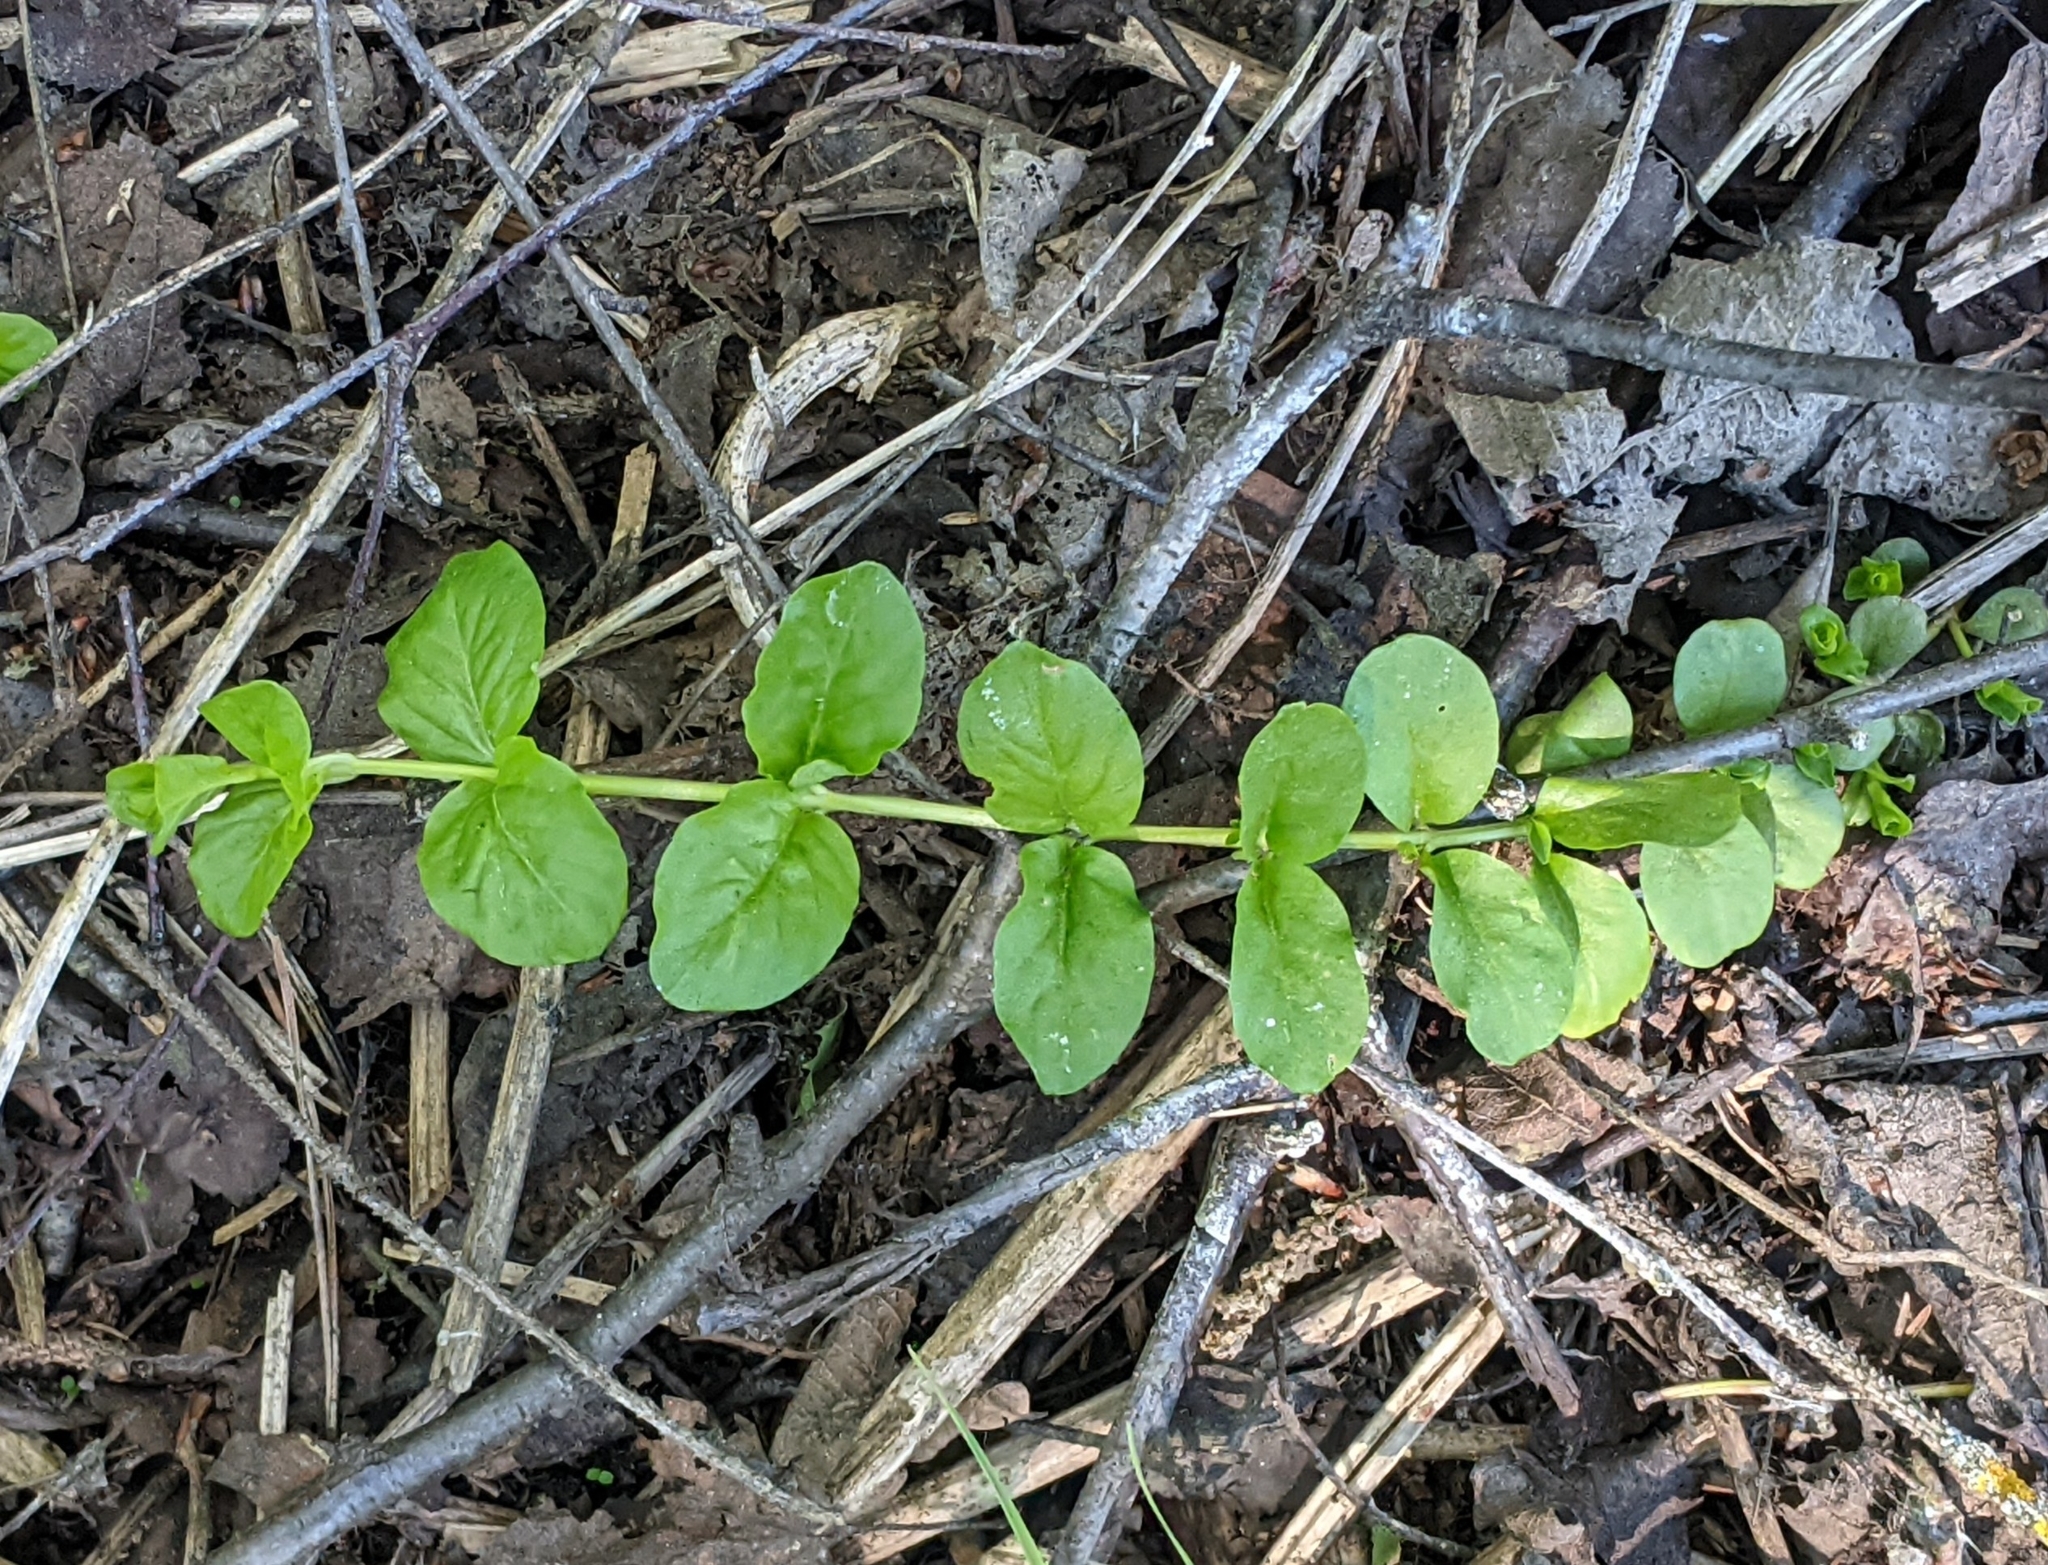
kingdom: Plantae
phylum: Tracheophyta
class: Magnoliopsida
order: Ericales
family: Primulaceae
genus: Lysimachia
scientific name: Lysimachia nummularia
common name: Moneywort
